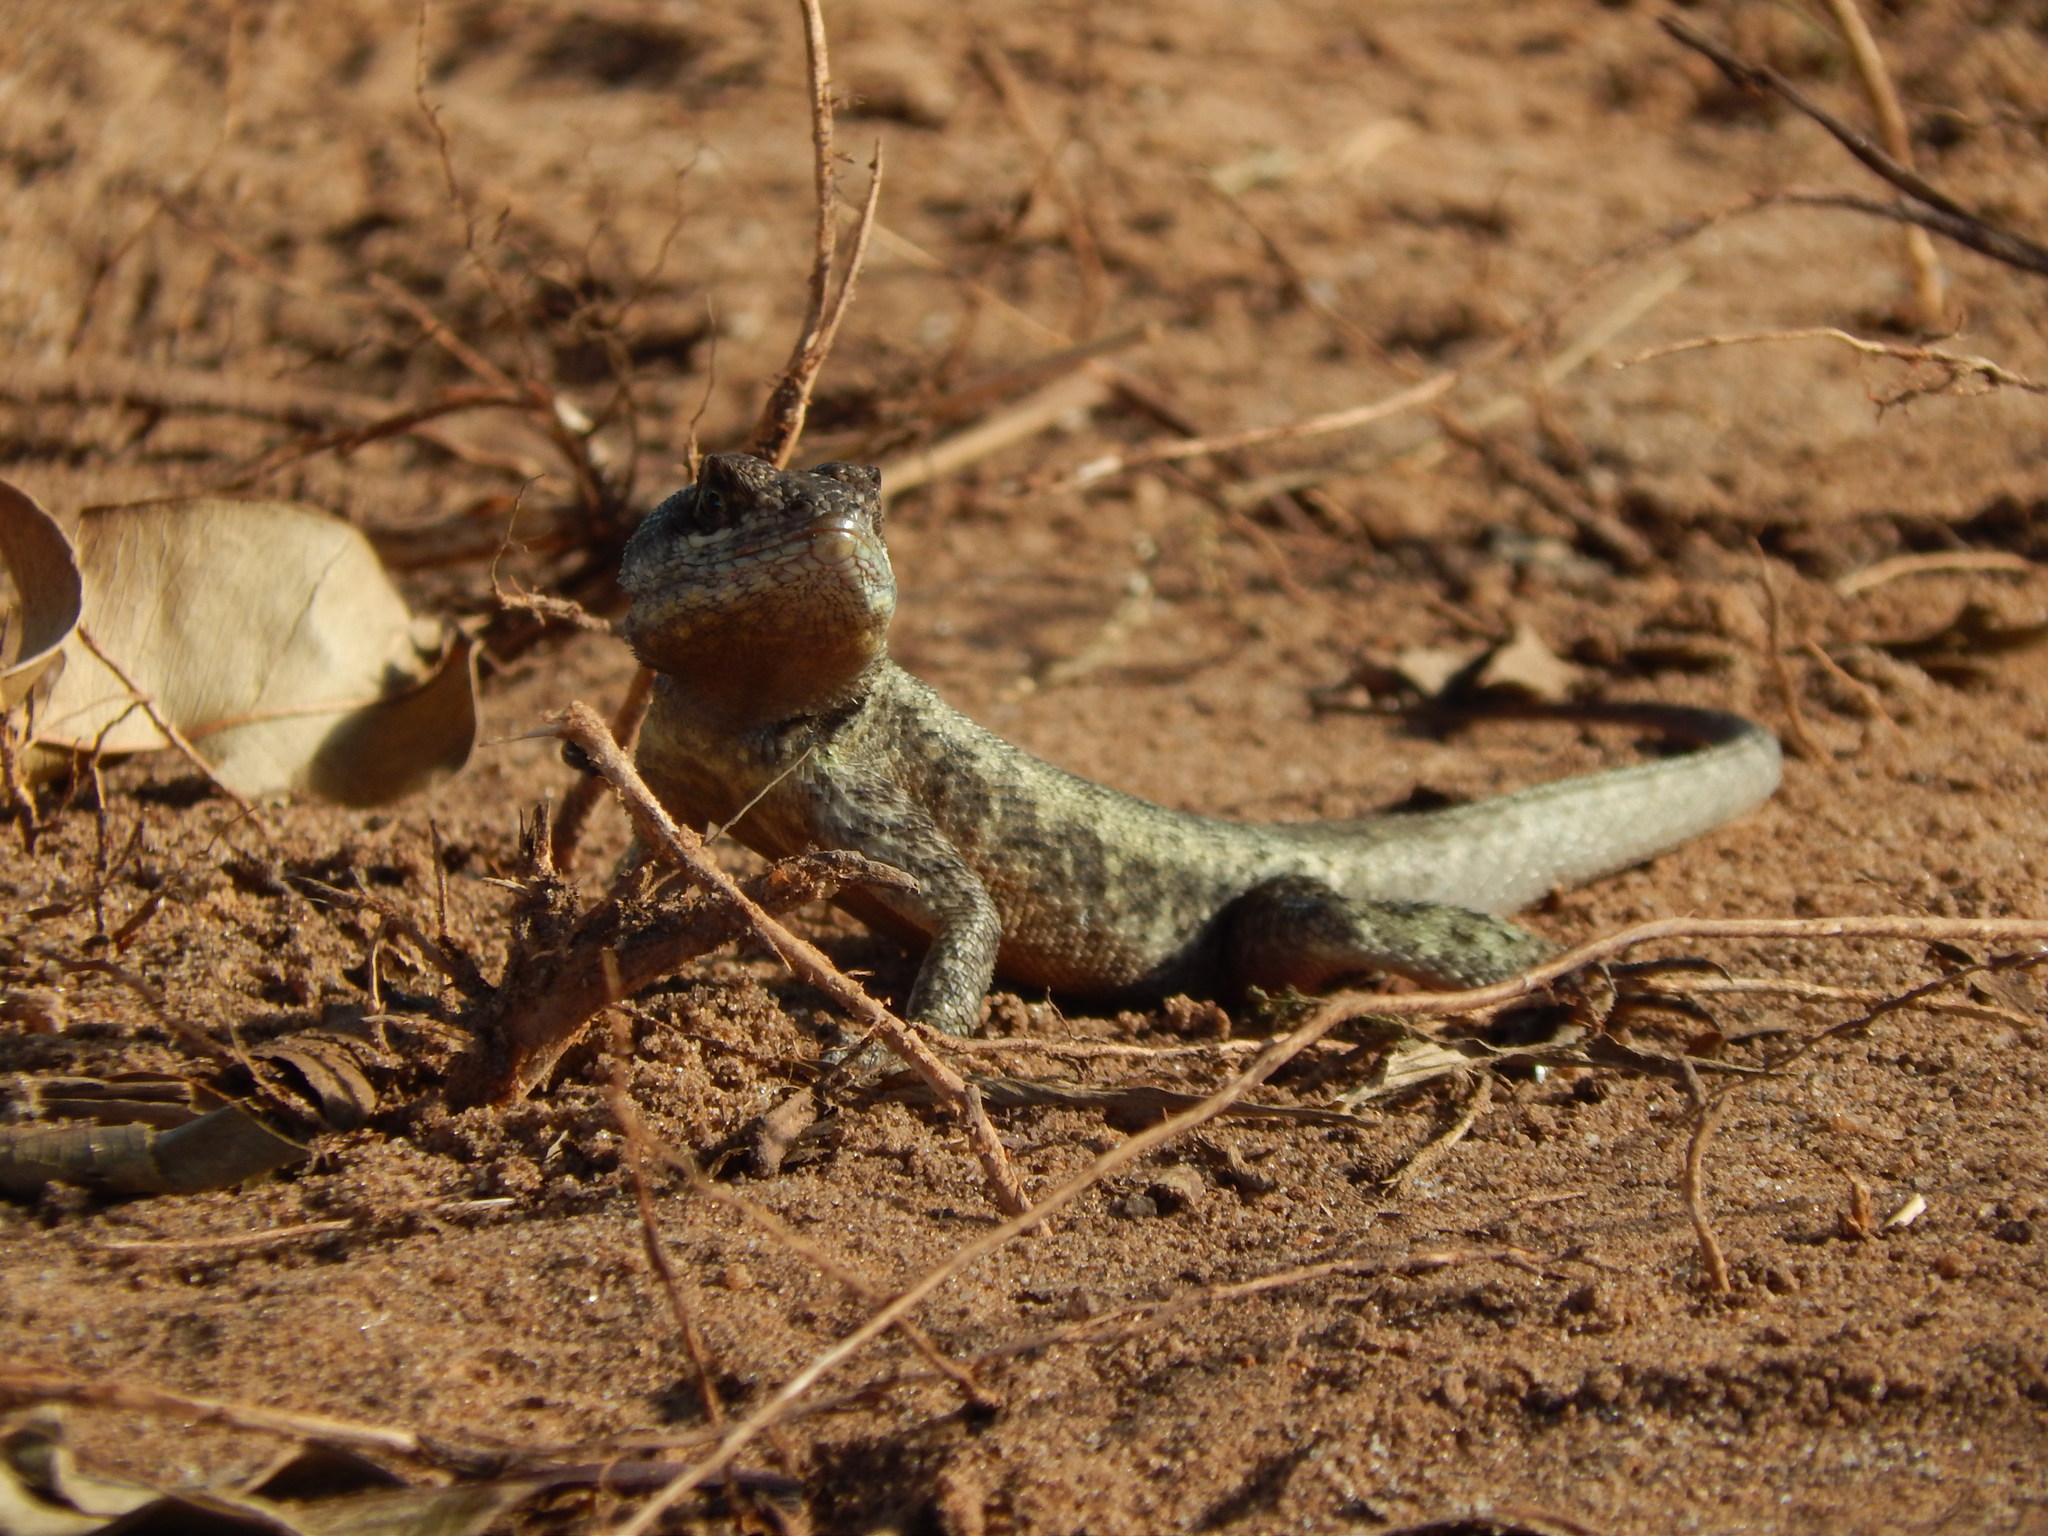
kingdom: Animalia
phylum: Chordata
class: Squamata
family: Tropiduridae
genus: Tropidurus
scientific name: Tropidurus hispidus
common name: Peters' lava lizard
